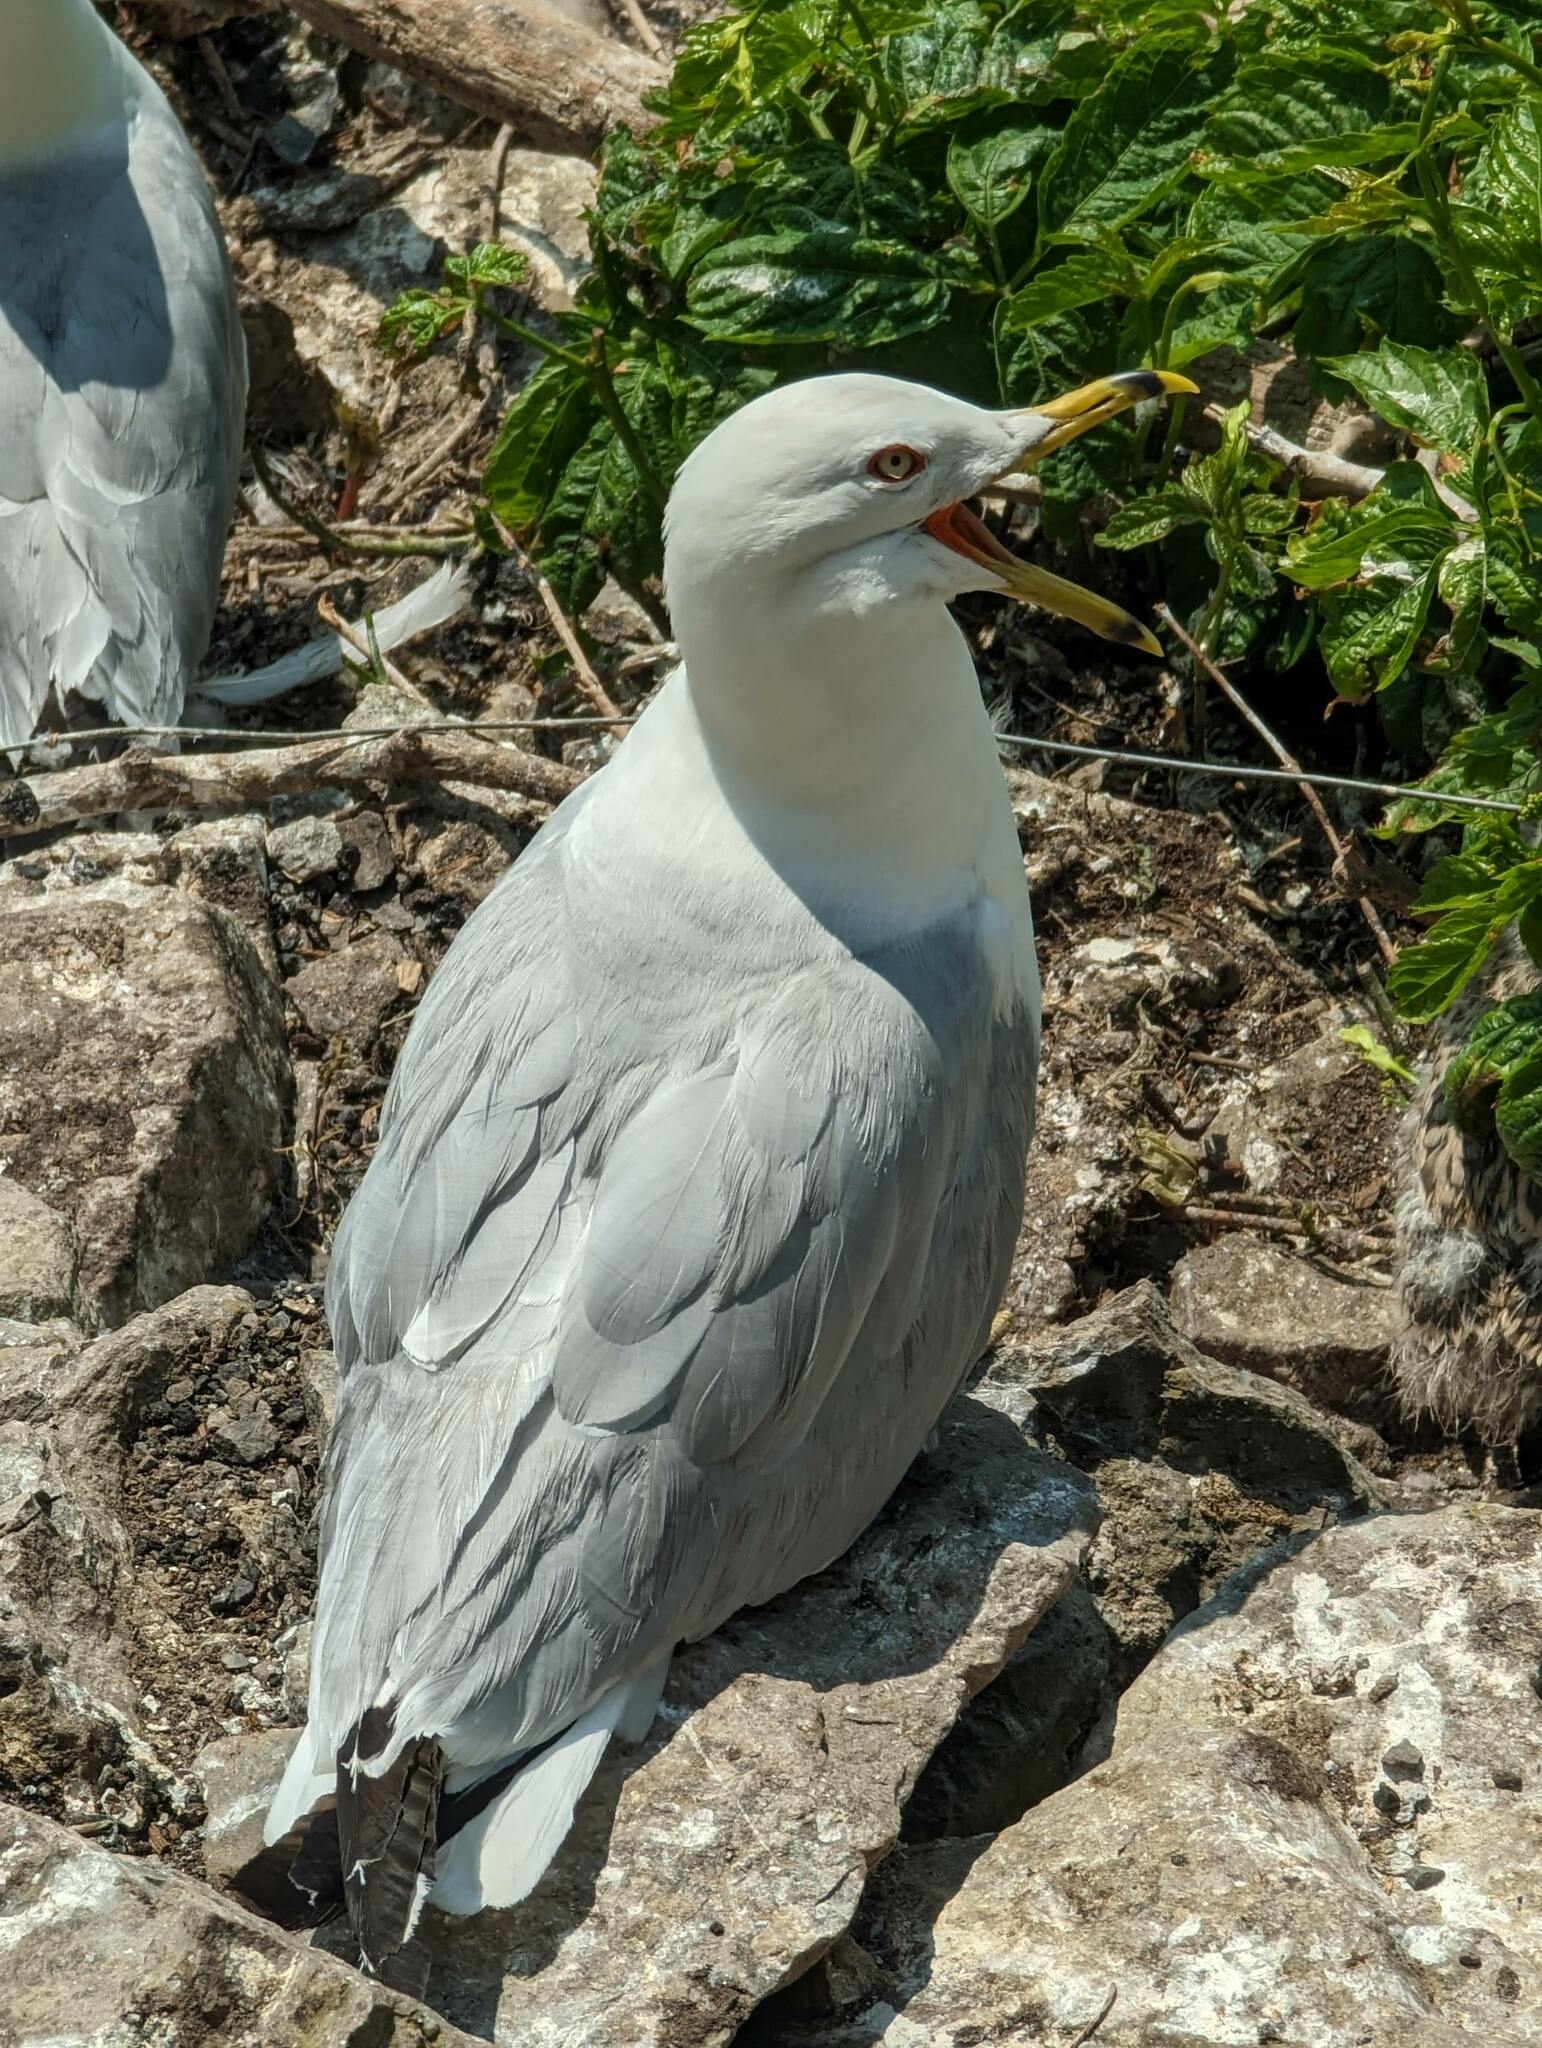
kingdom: Animalia
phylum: Chordata
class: Aves
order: Charadriiformes
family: Laridae
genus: Larus
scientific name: Larus delawarensis
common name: Ring-billed gull
